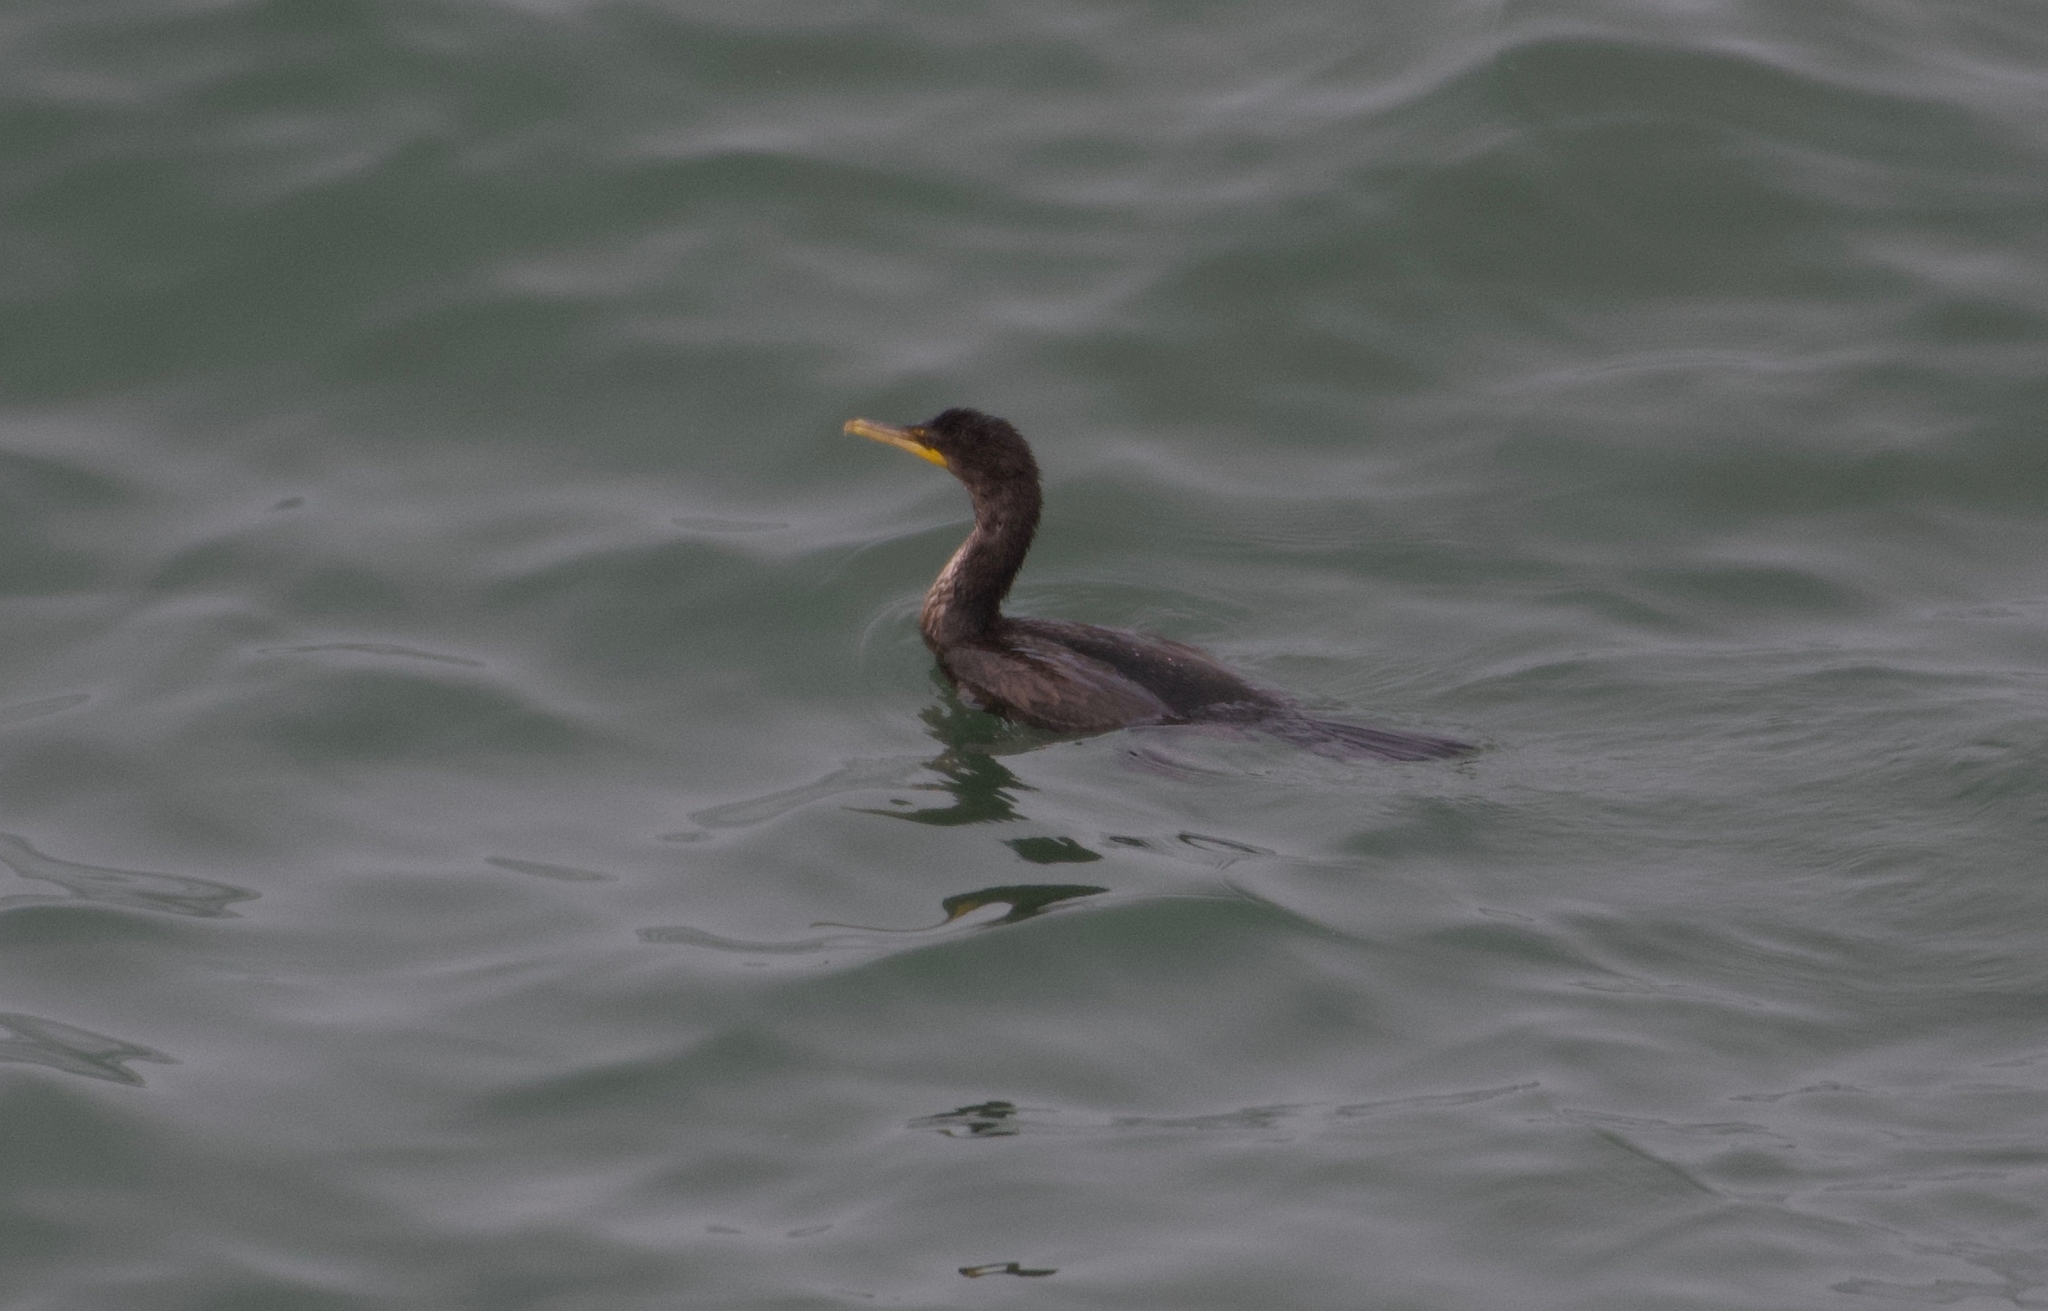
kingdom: Animalia
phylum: Chordata
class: Aves
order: Suliformes
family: Phalacrocoracidae
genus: Phalacrocorax
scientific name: Phalacrocorax auritus
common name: Double-crested cormorant
